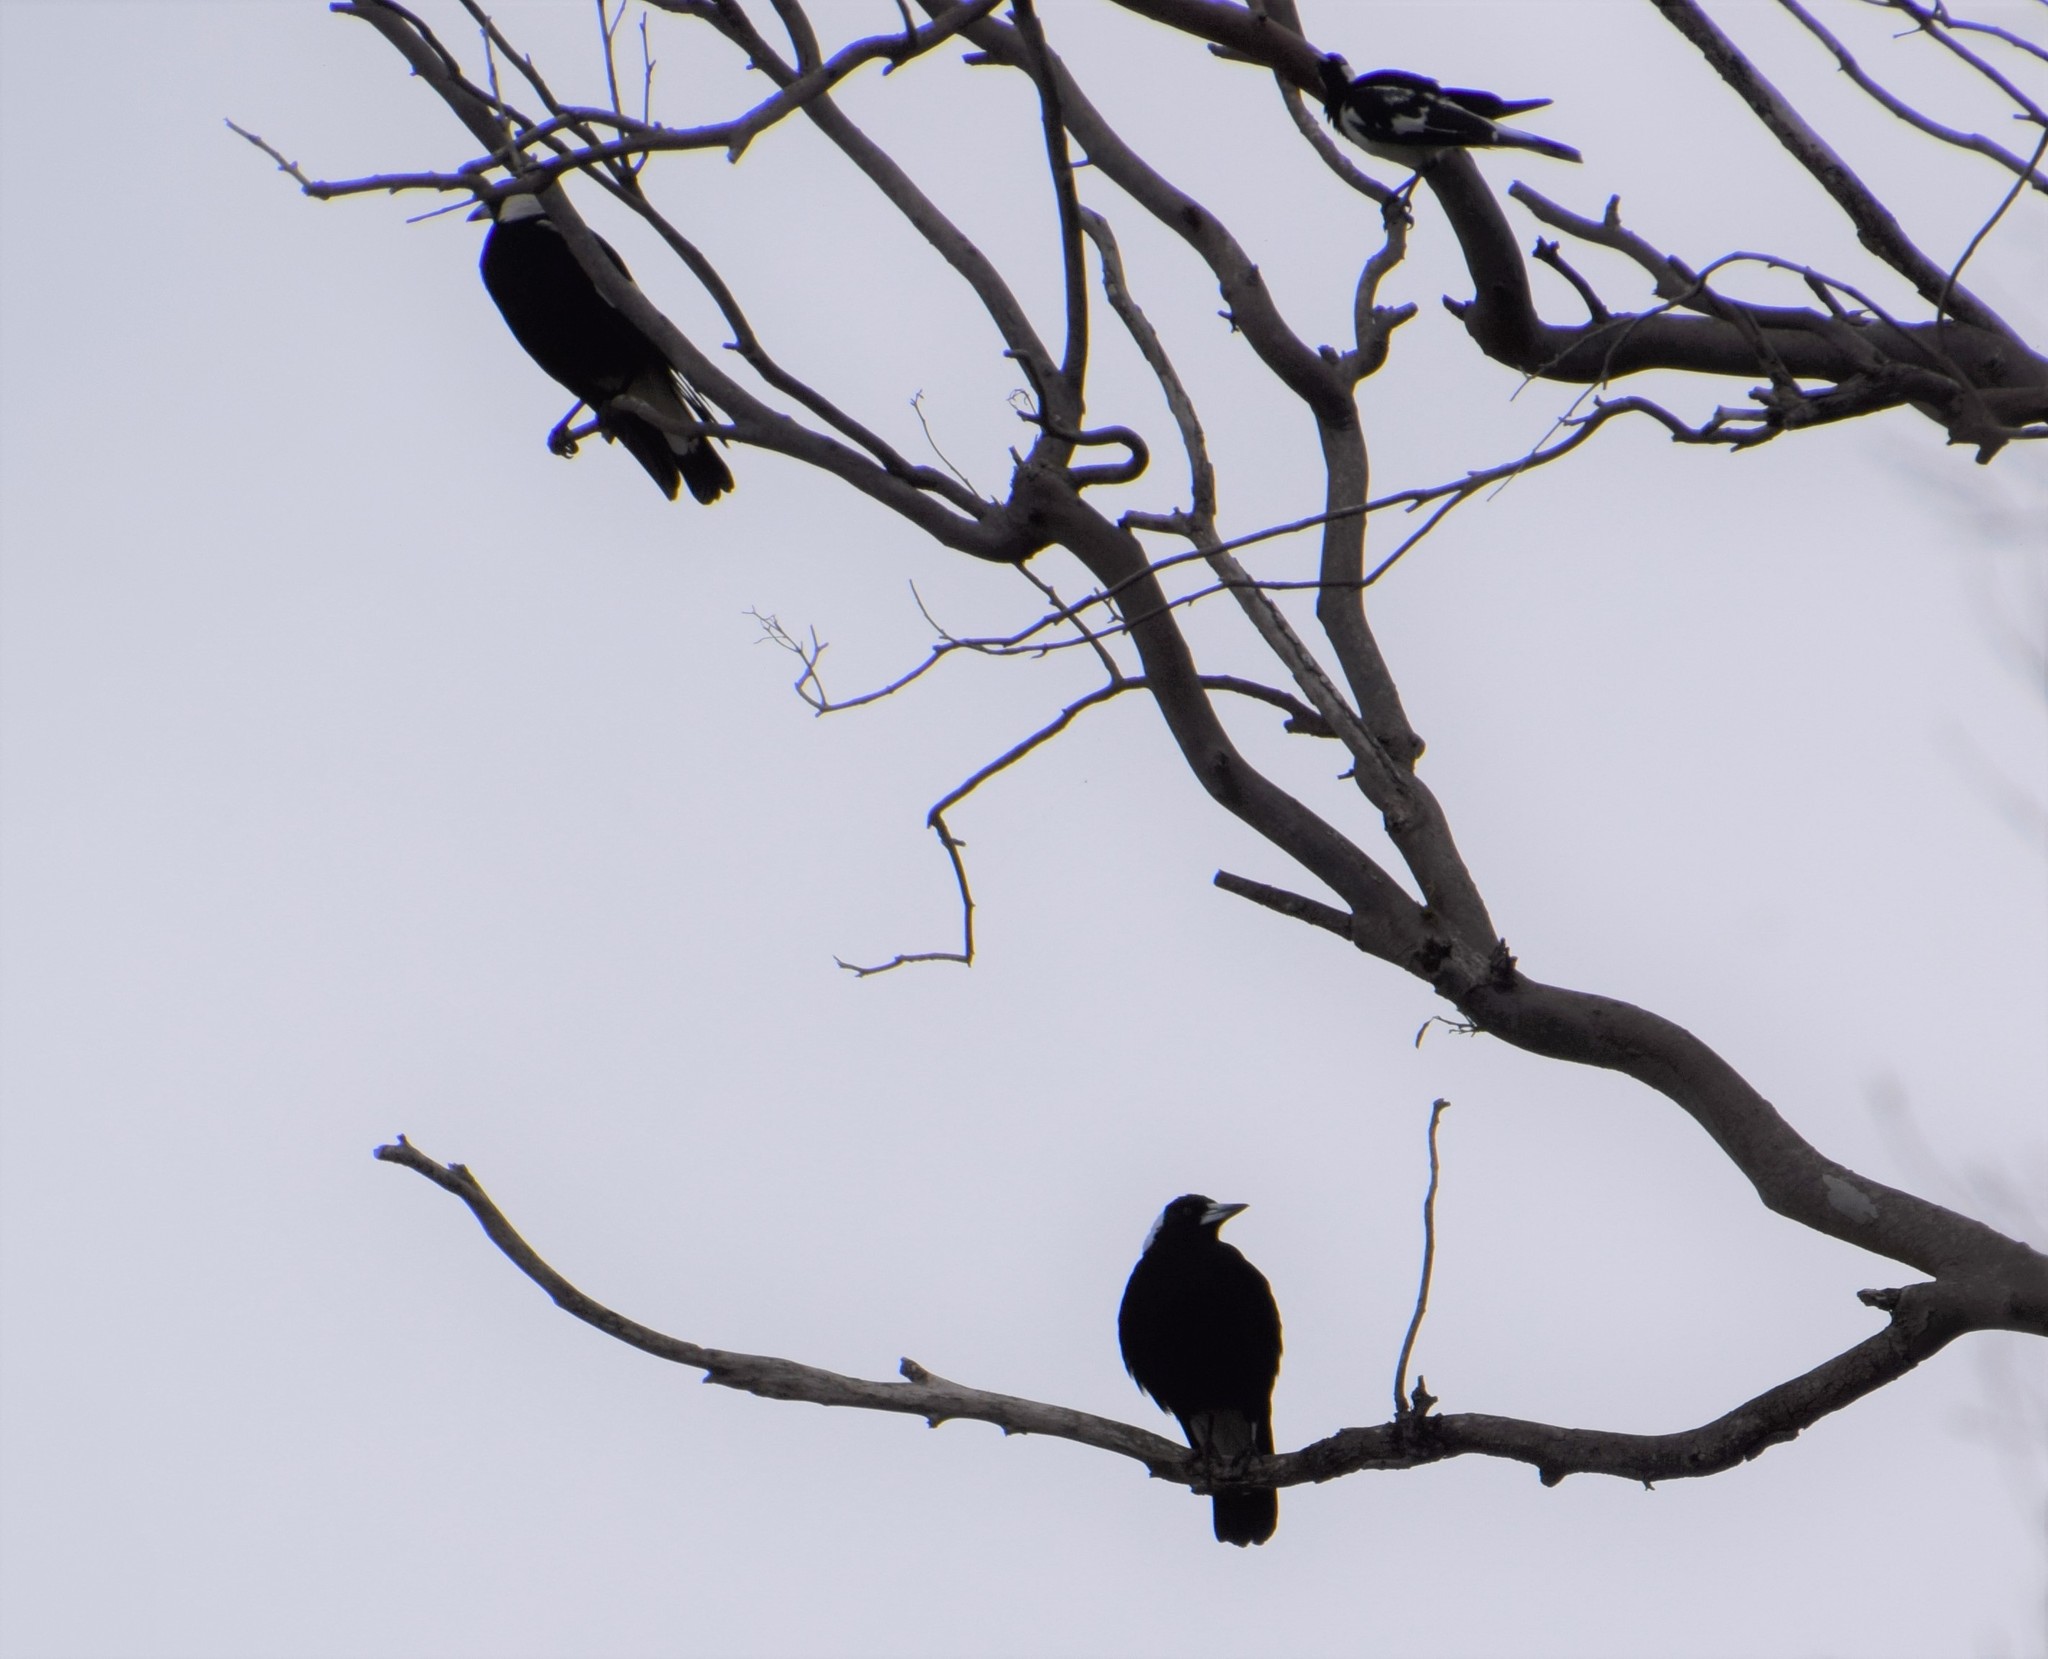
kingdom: Animalia
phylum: Chordata
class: Aves
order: Passeriformes
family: Cracticidae
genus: Gymnorhina
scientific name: Gymnorhina tibicen
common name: Australian magpie
